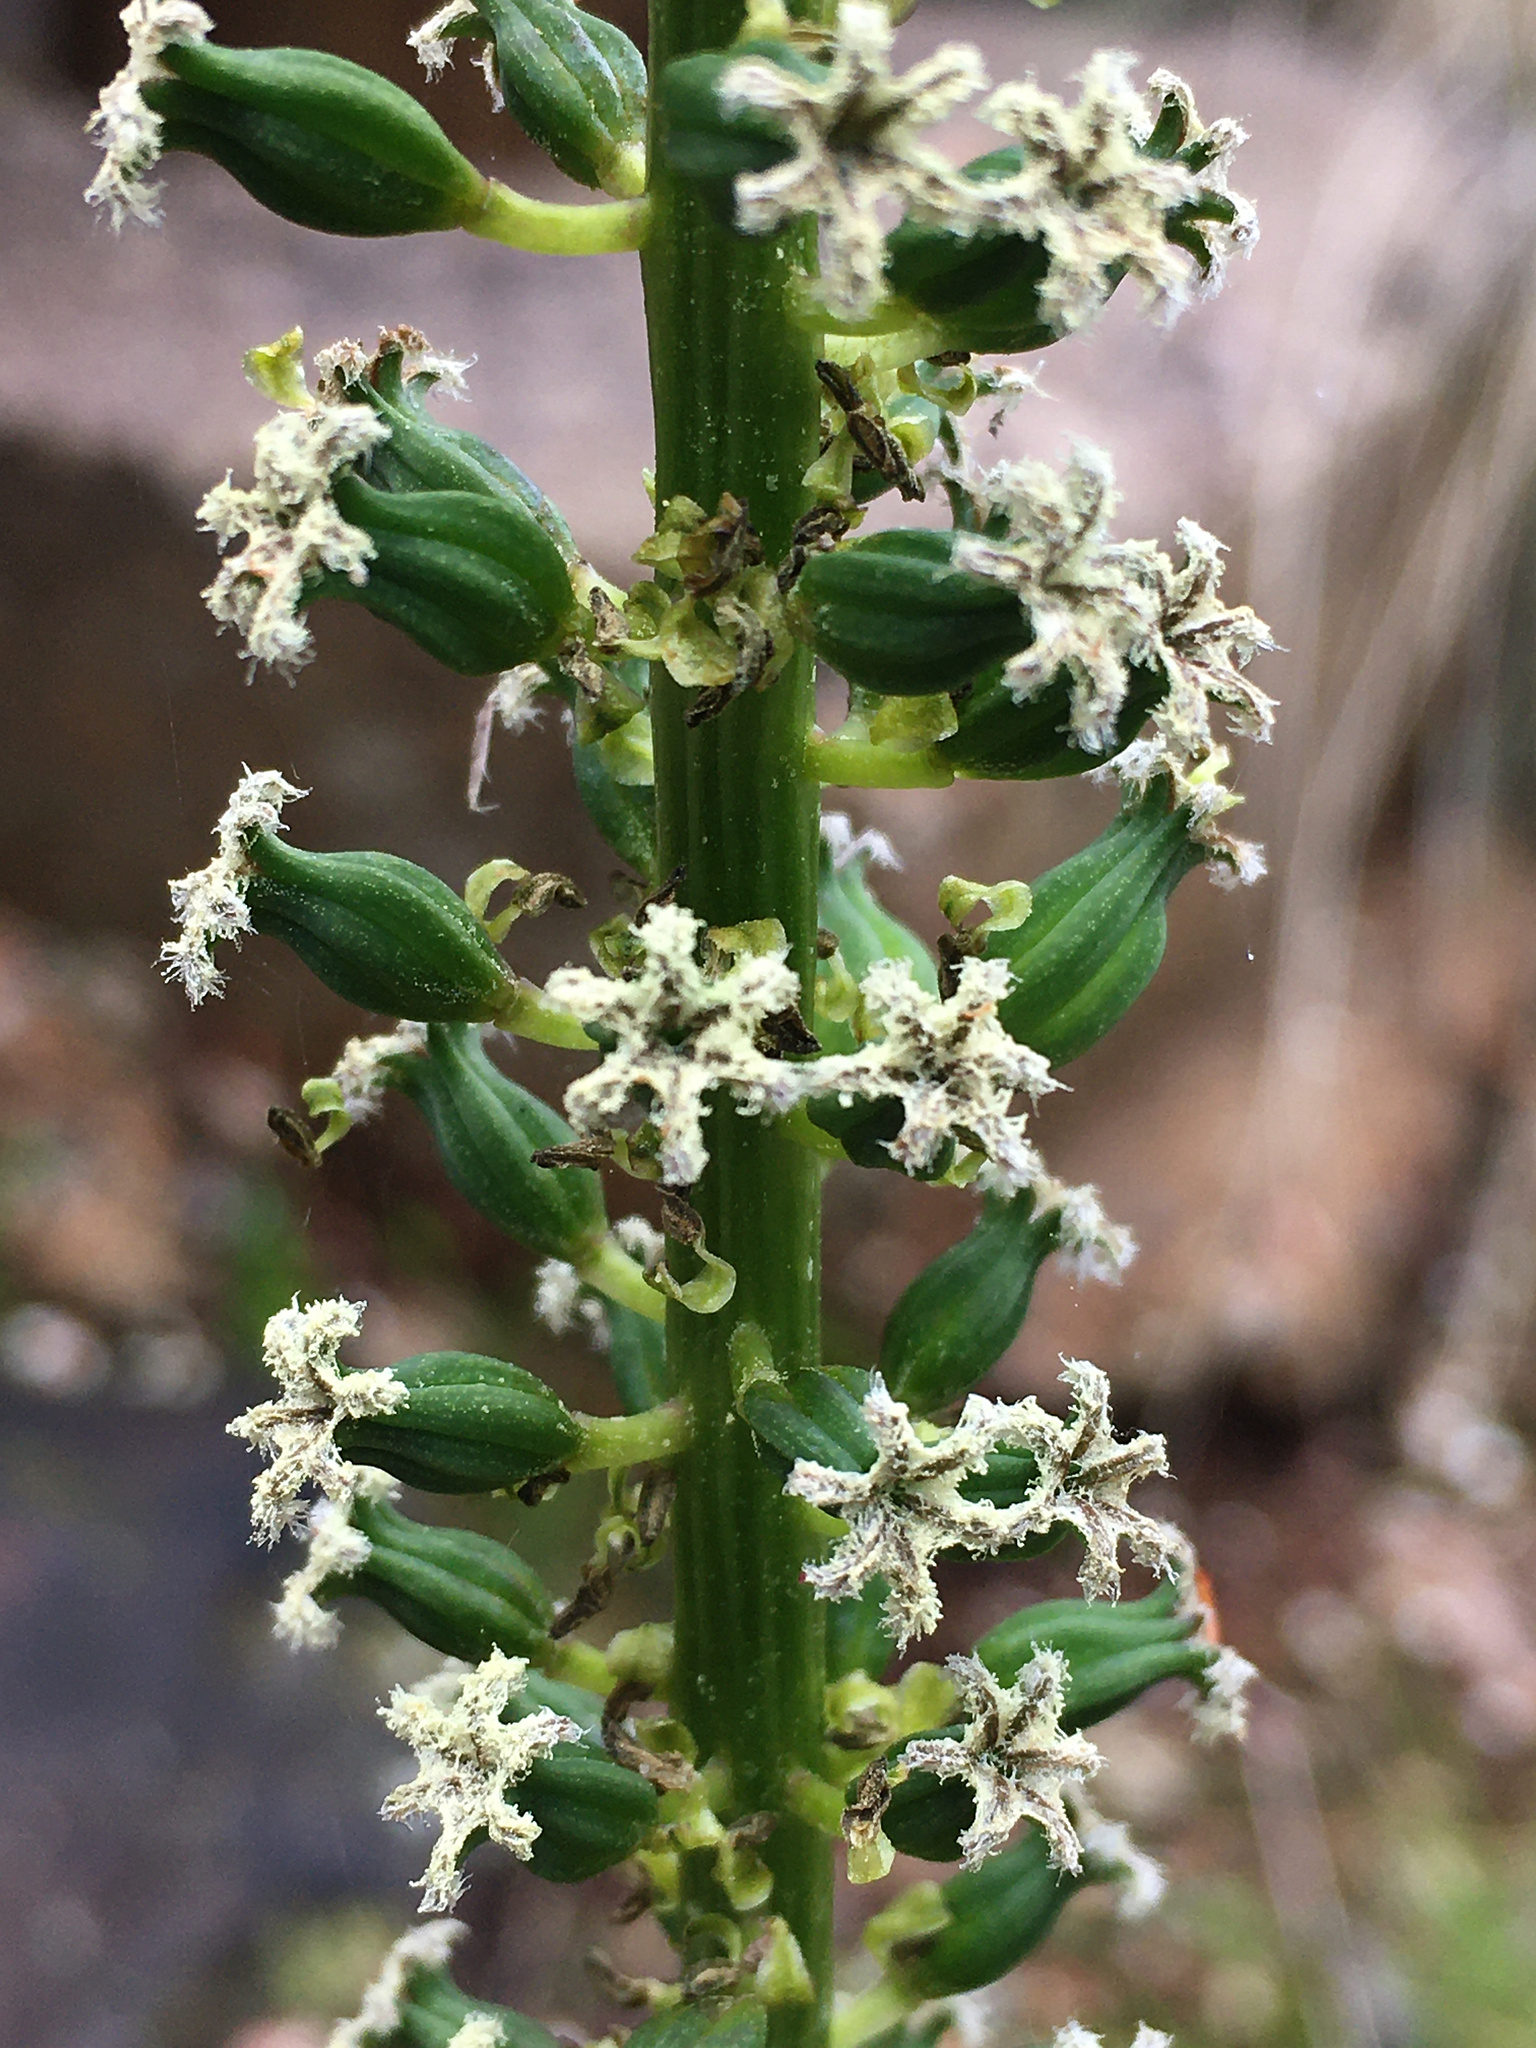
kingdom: Plantae
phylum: Tracheophyta
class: Liliopsida
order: Alismatales
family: Juncaginaceae
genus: Cycnogeton
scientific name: Cycnogeton procerum
